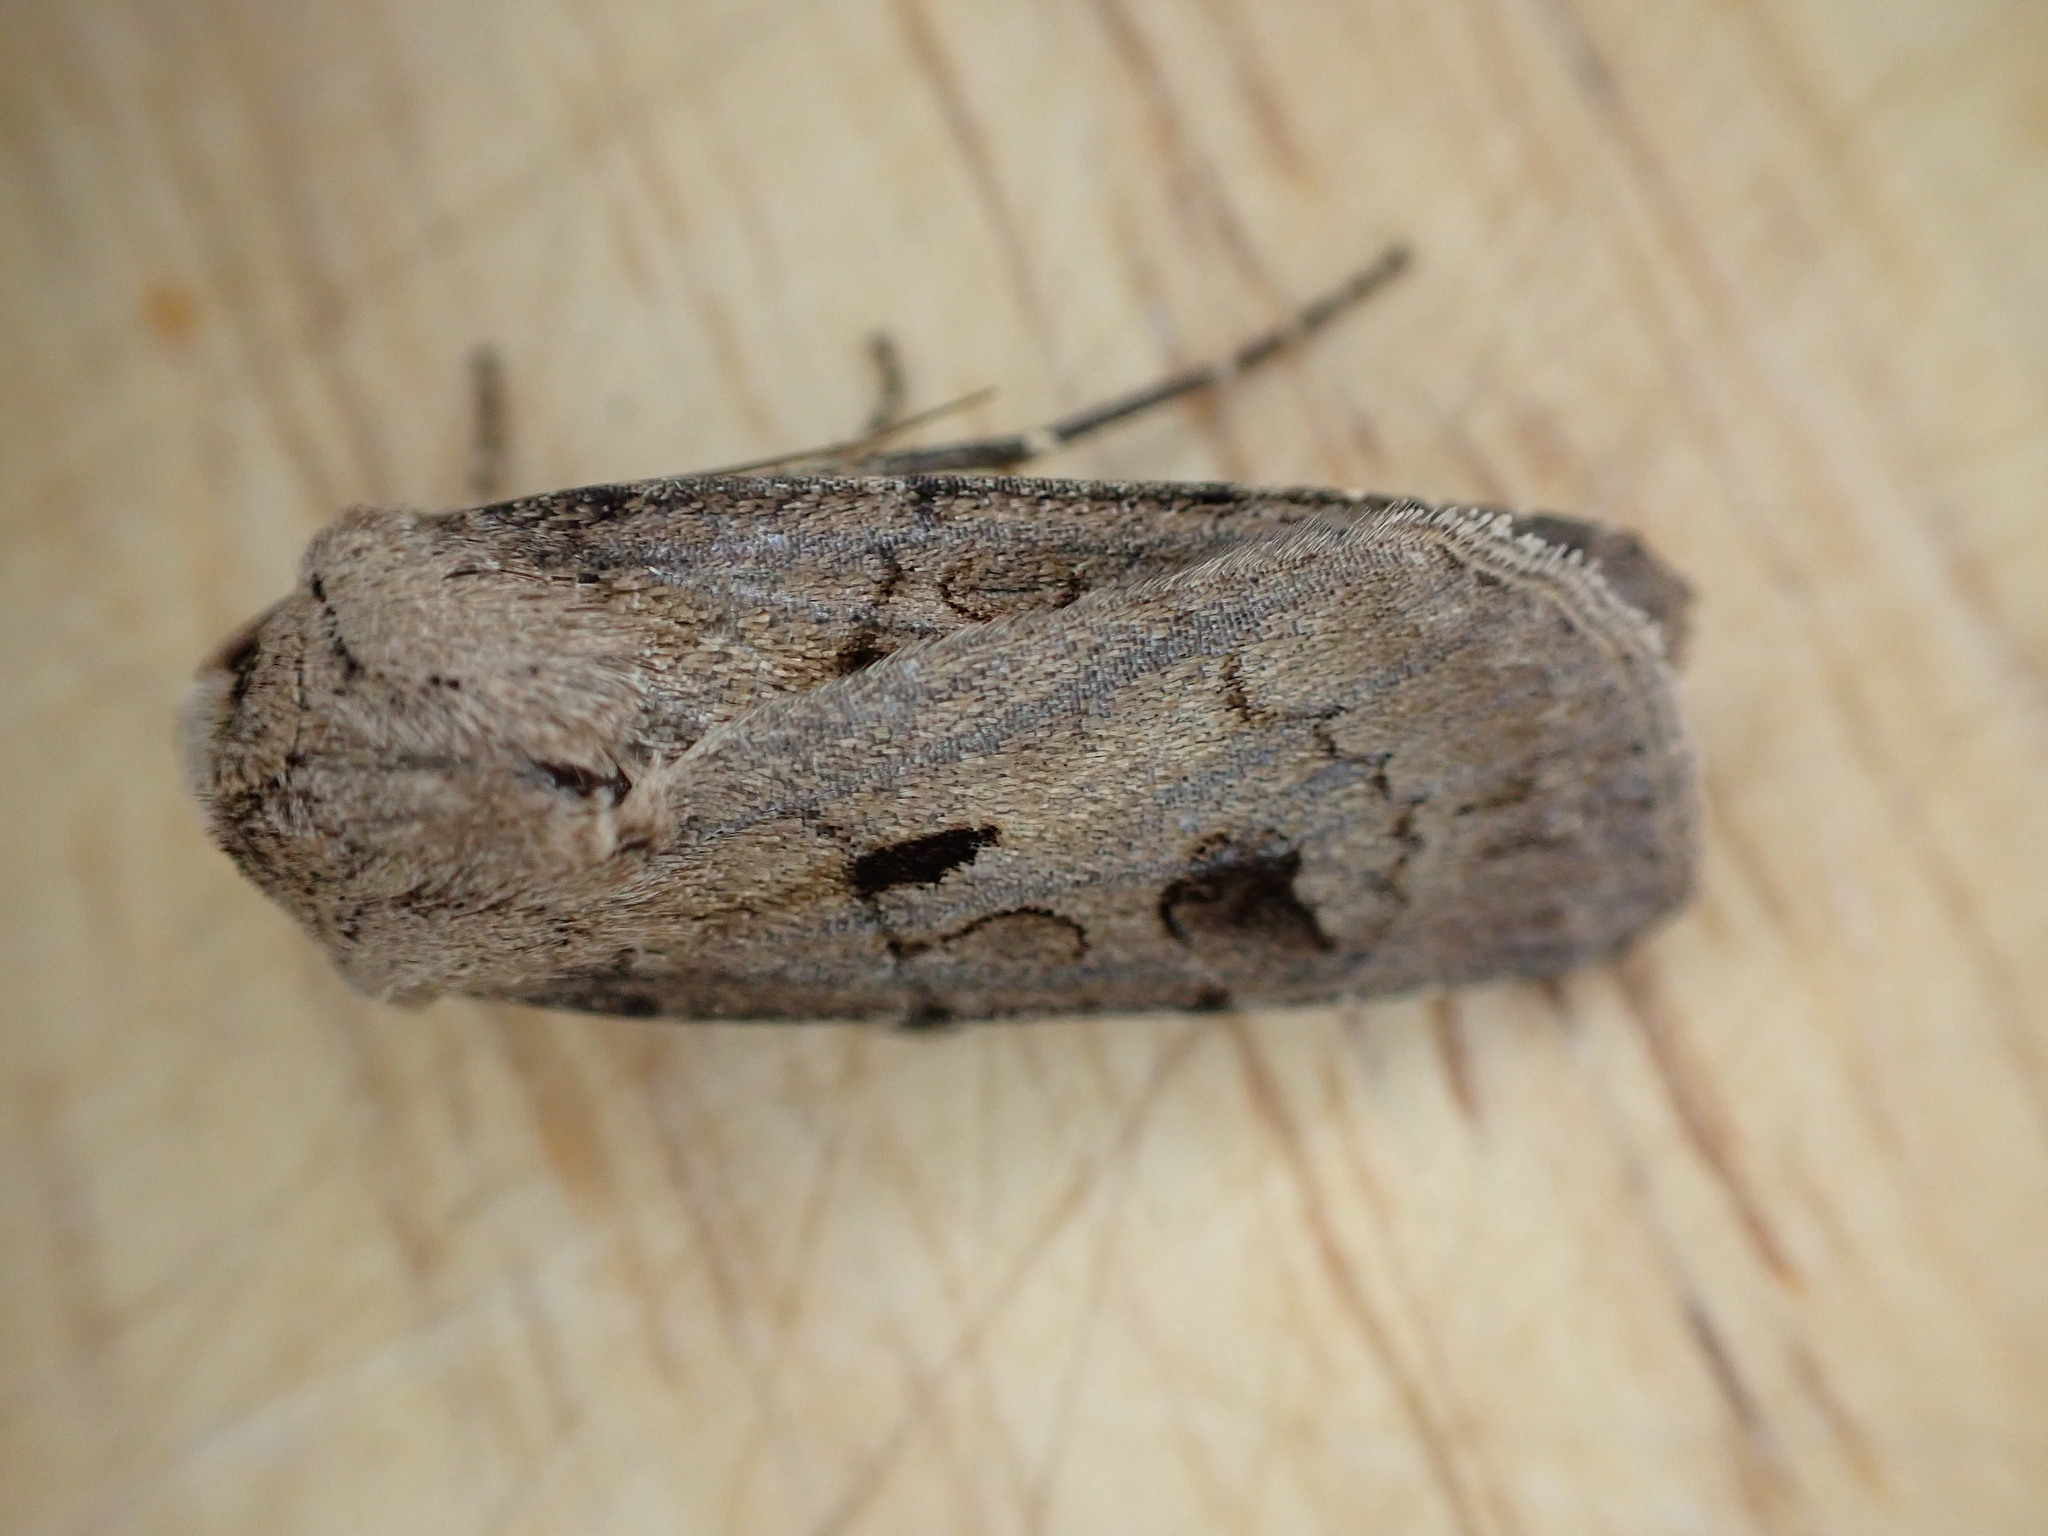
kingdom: Animalia
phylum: Arthropoda
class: Insecta
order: Lepidoptera
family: Noctuidae
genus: Agrotis
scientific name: Agrotis exclamationis
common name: Heart and dart
